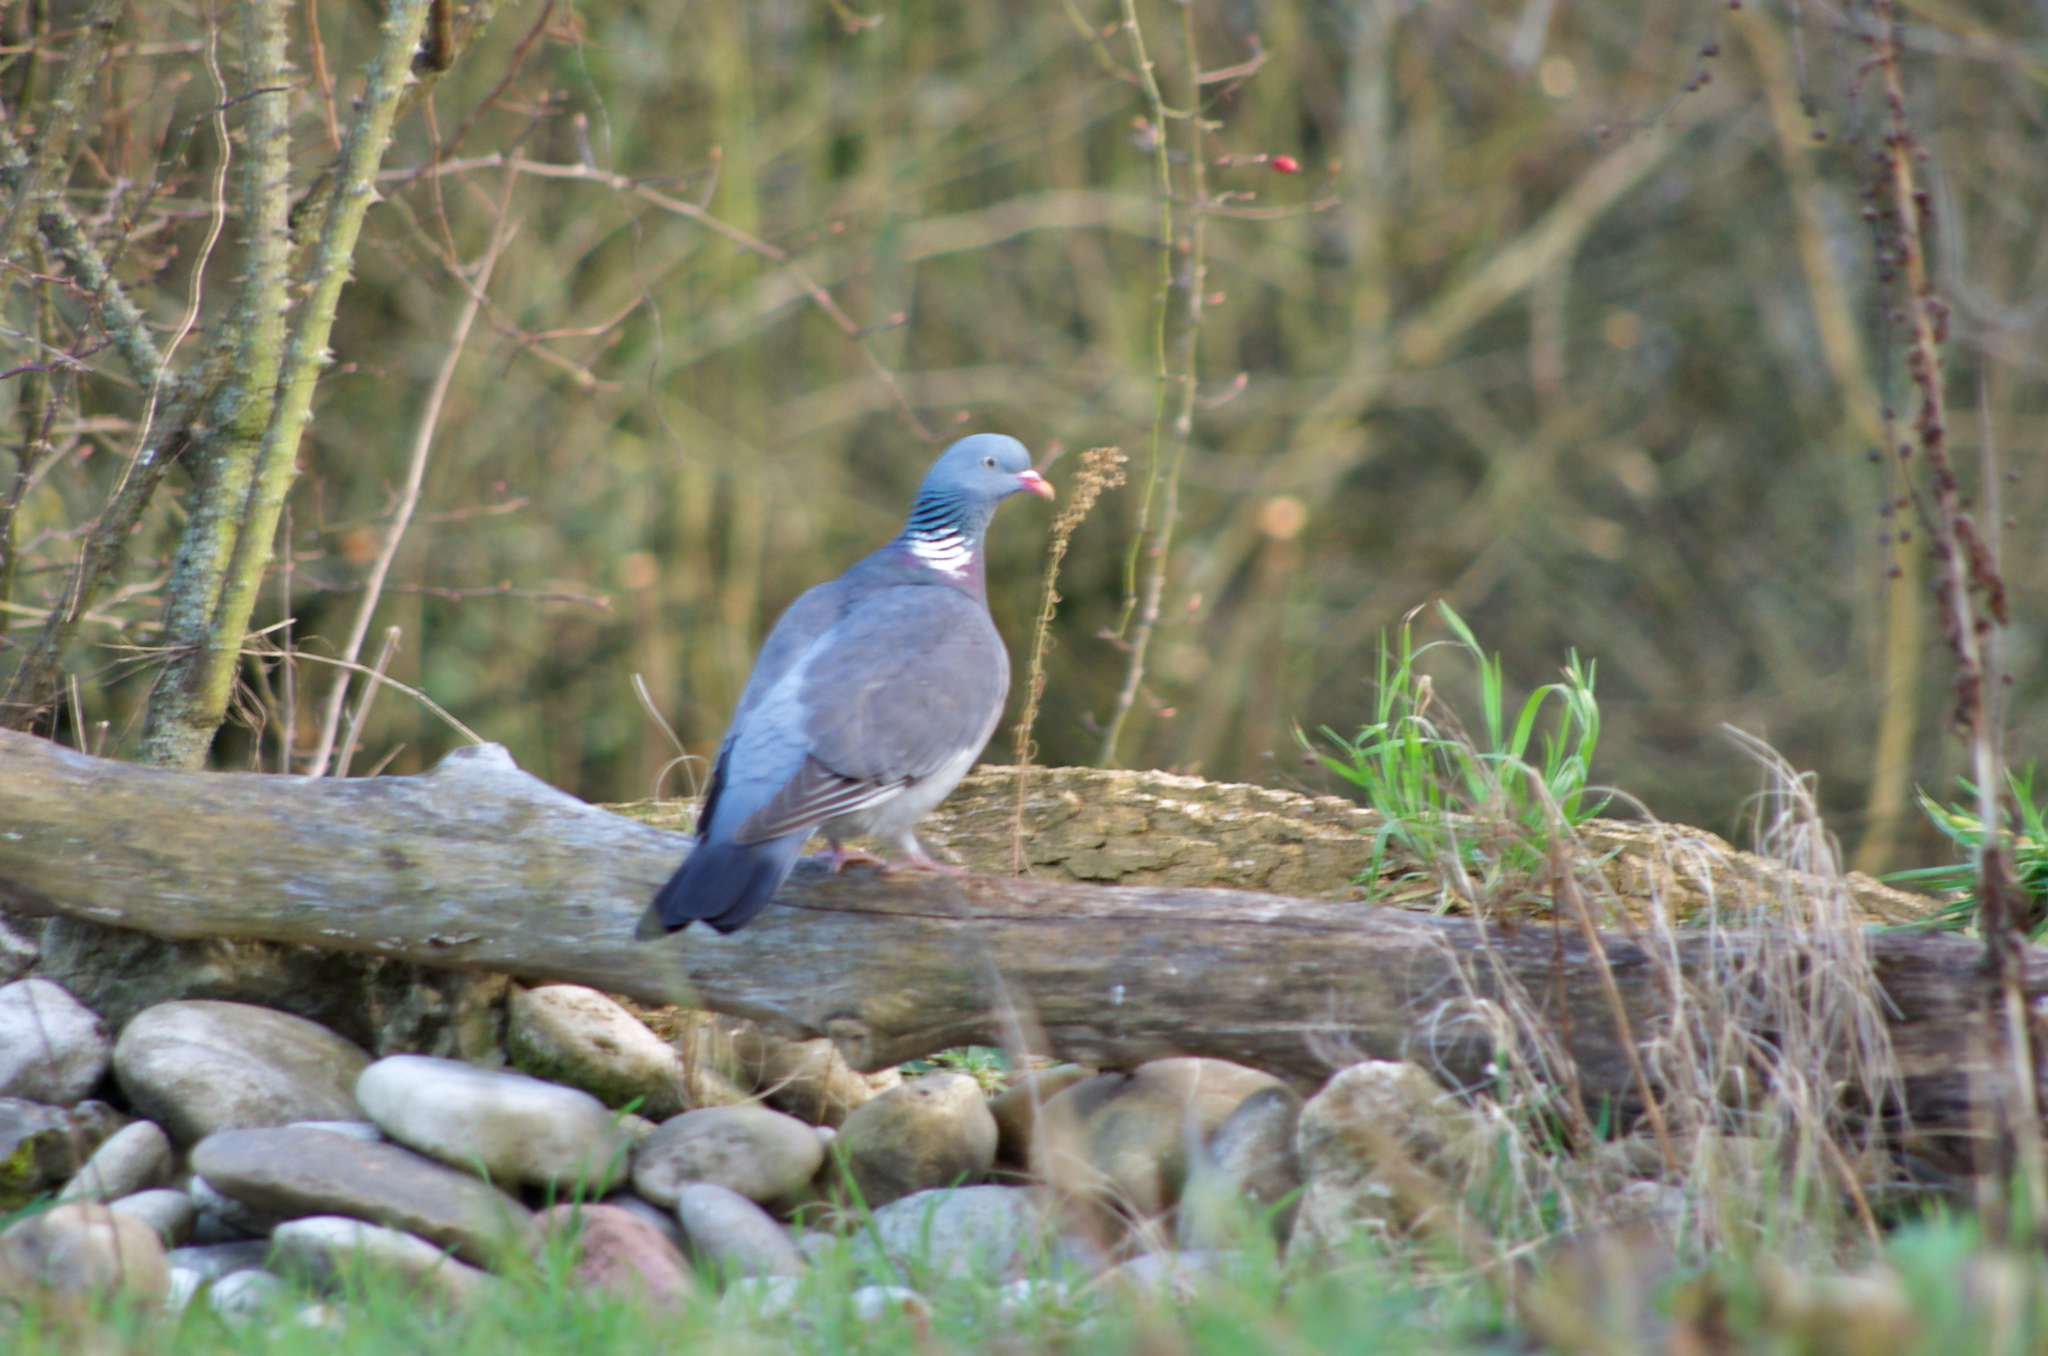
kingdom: Animalia
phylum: Chordata
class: Aves
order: Columbiformes
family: Columbidae
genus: Columba
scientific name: Columba palumbus
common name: Common wood pigeon
